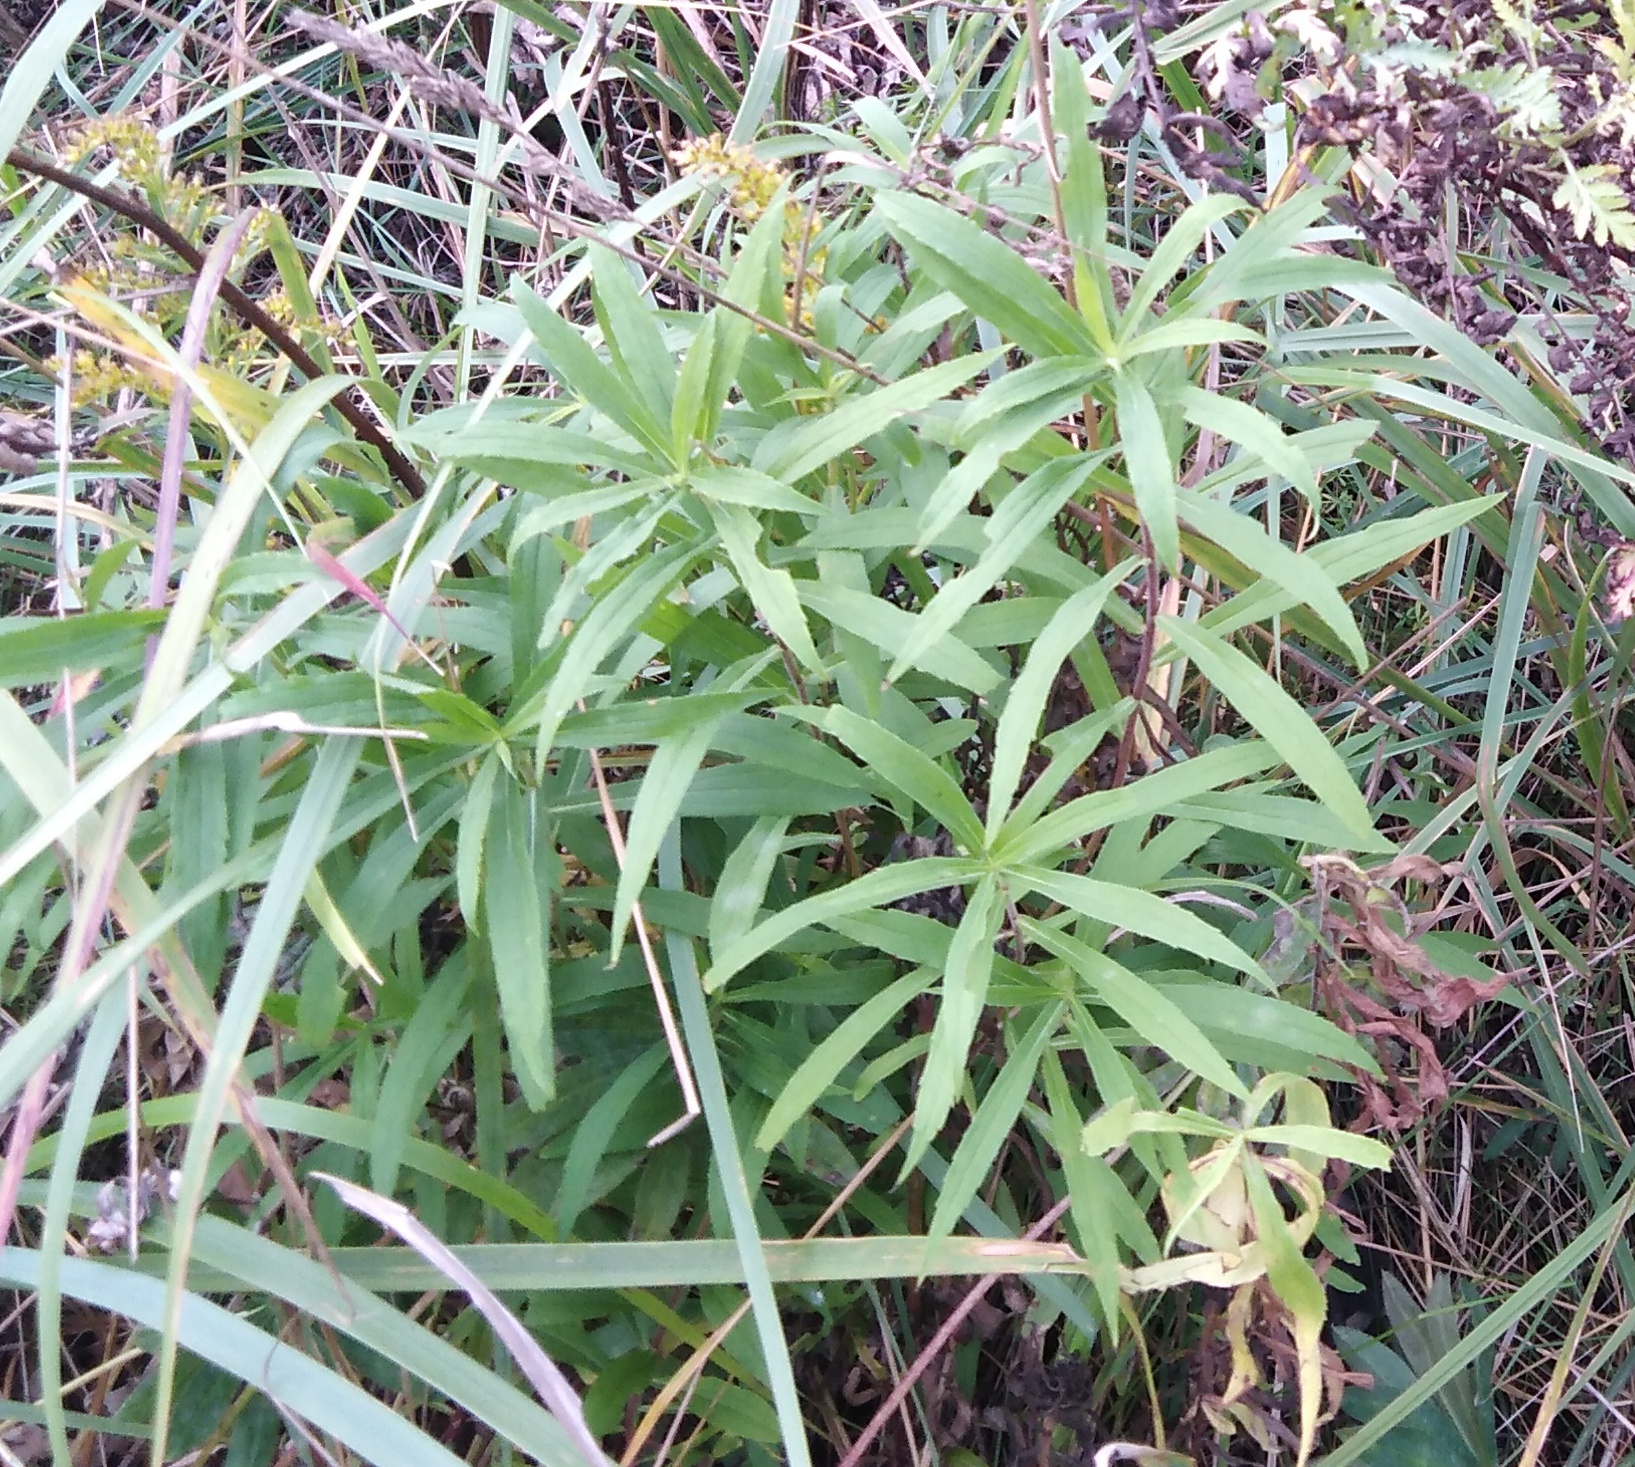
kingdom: Plantae
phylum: Tracheophyta
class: Magnoliopsida
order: Asterales
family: Asteraceae
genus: Solidago
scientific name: Solidago canadensis
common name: Canada goldenrod
